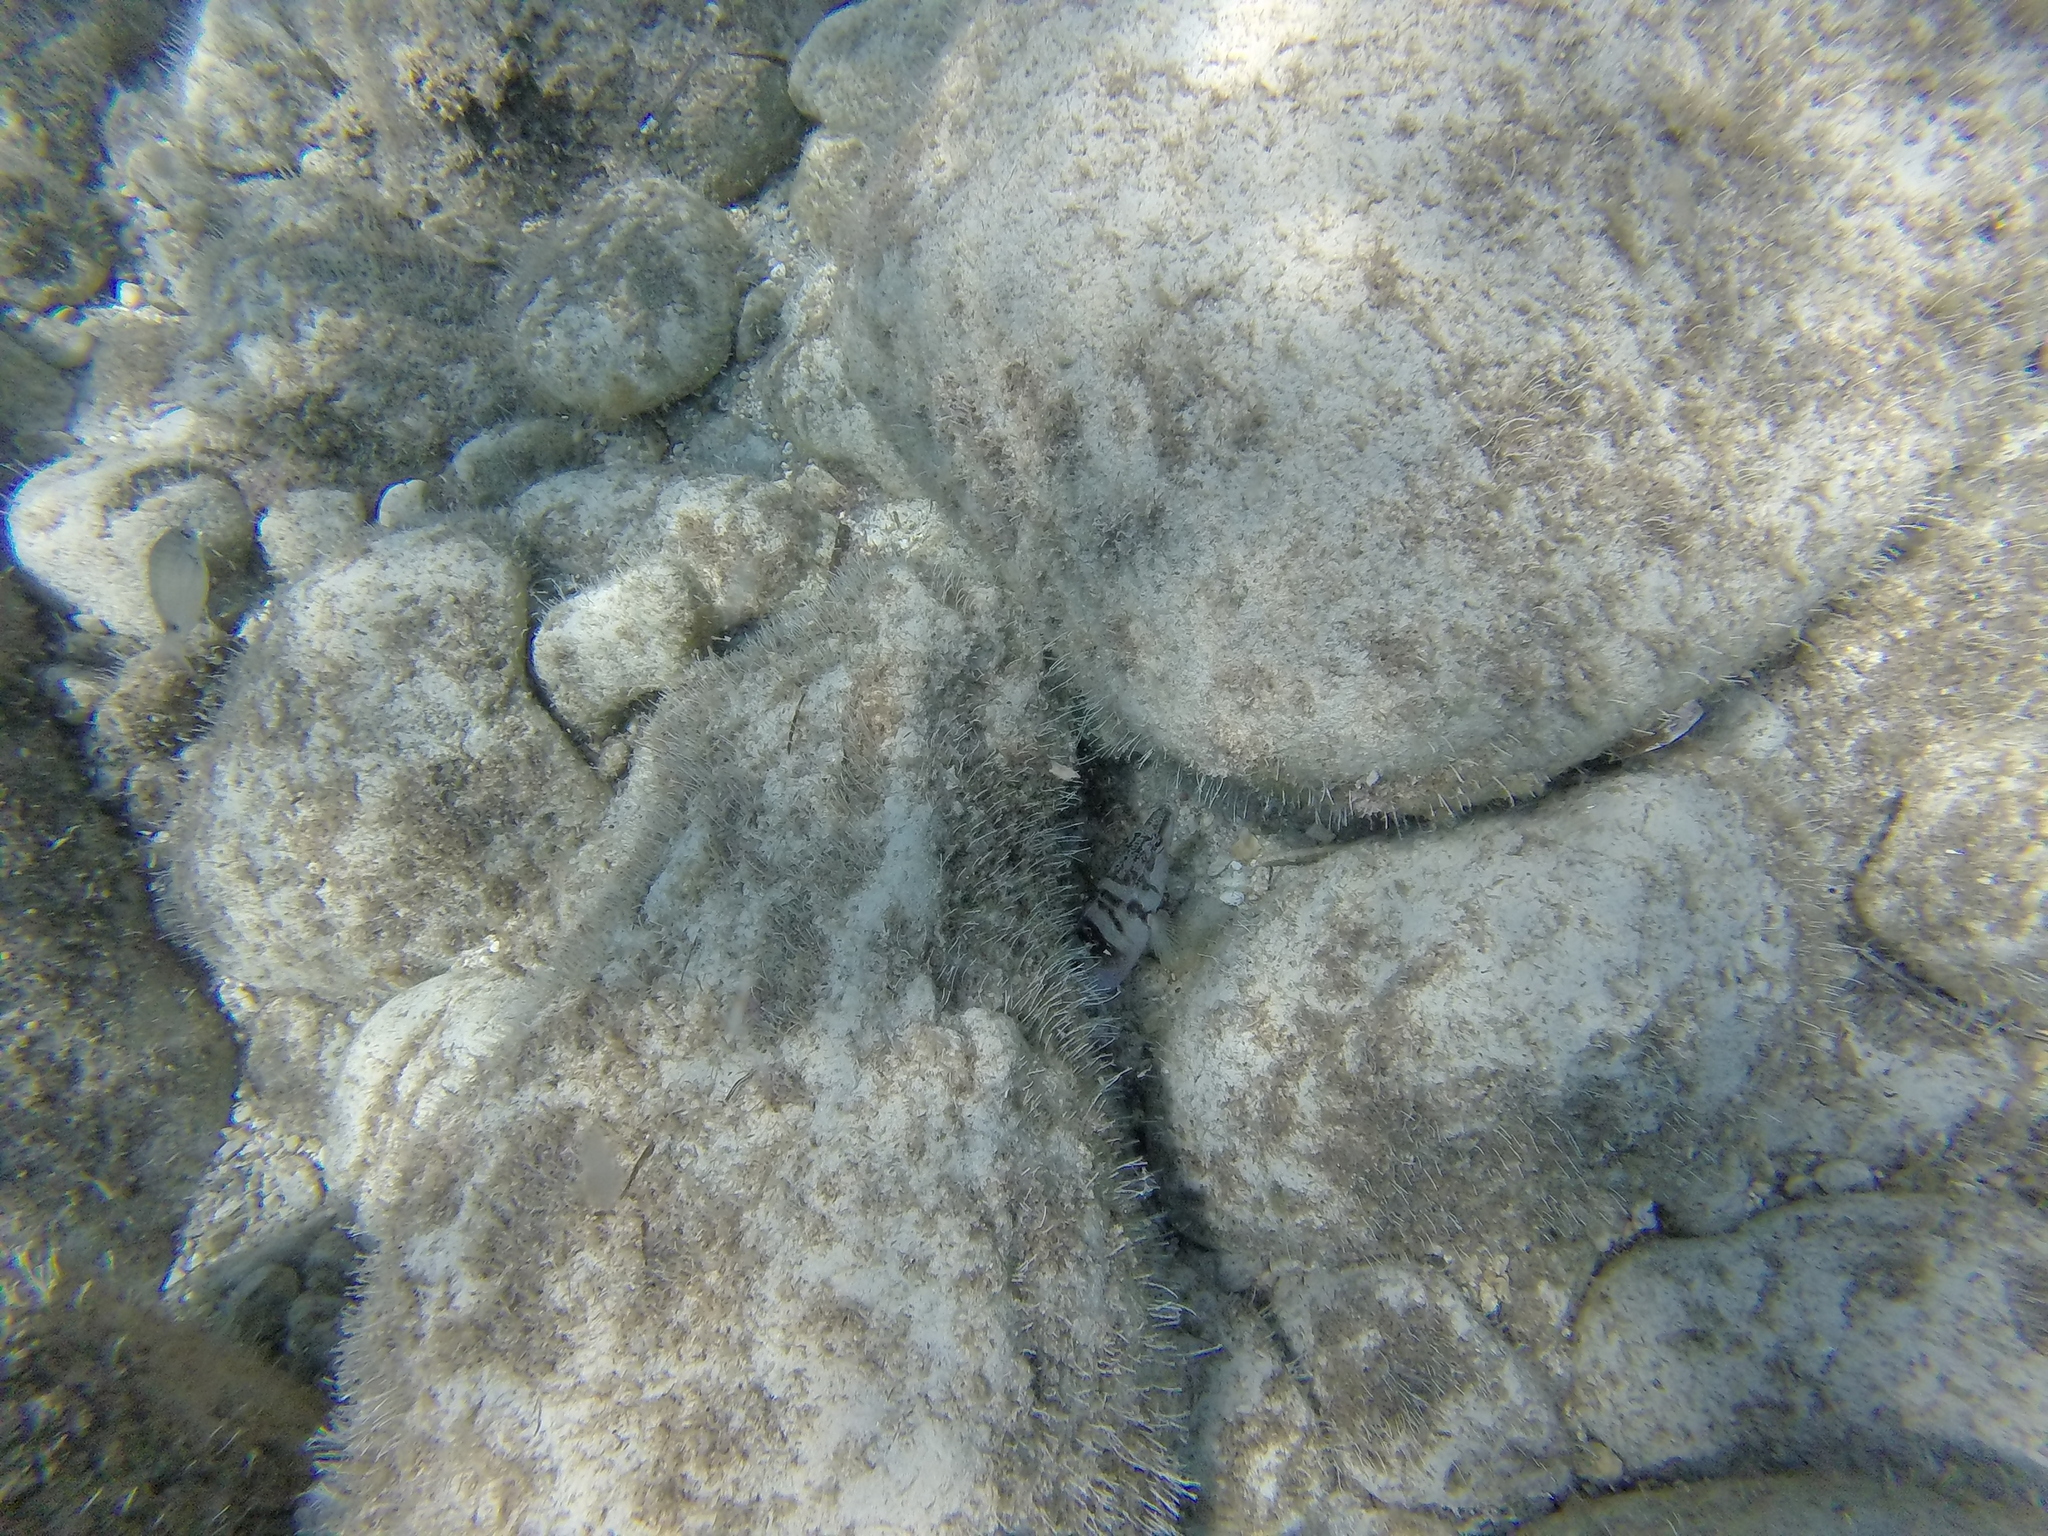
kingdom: Animalia
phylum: Chordata
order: Perciformes
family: Serranidae
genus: Serranus
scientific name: Serranus scriba
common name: Painted comber
